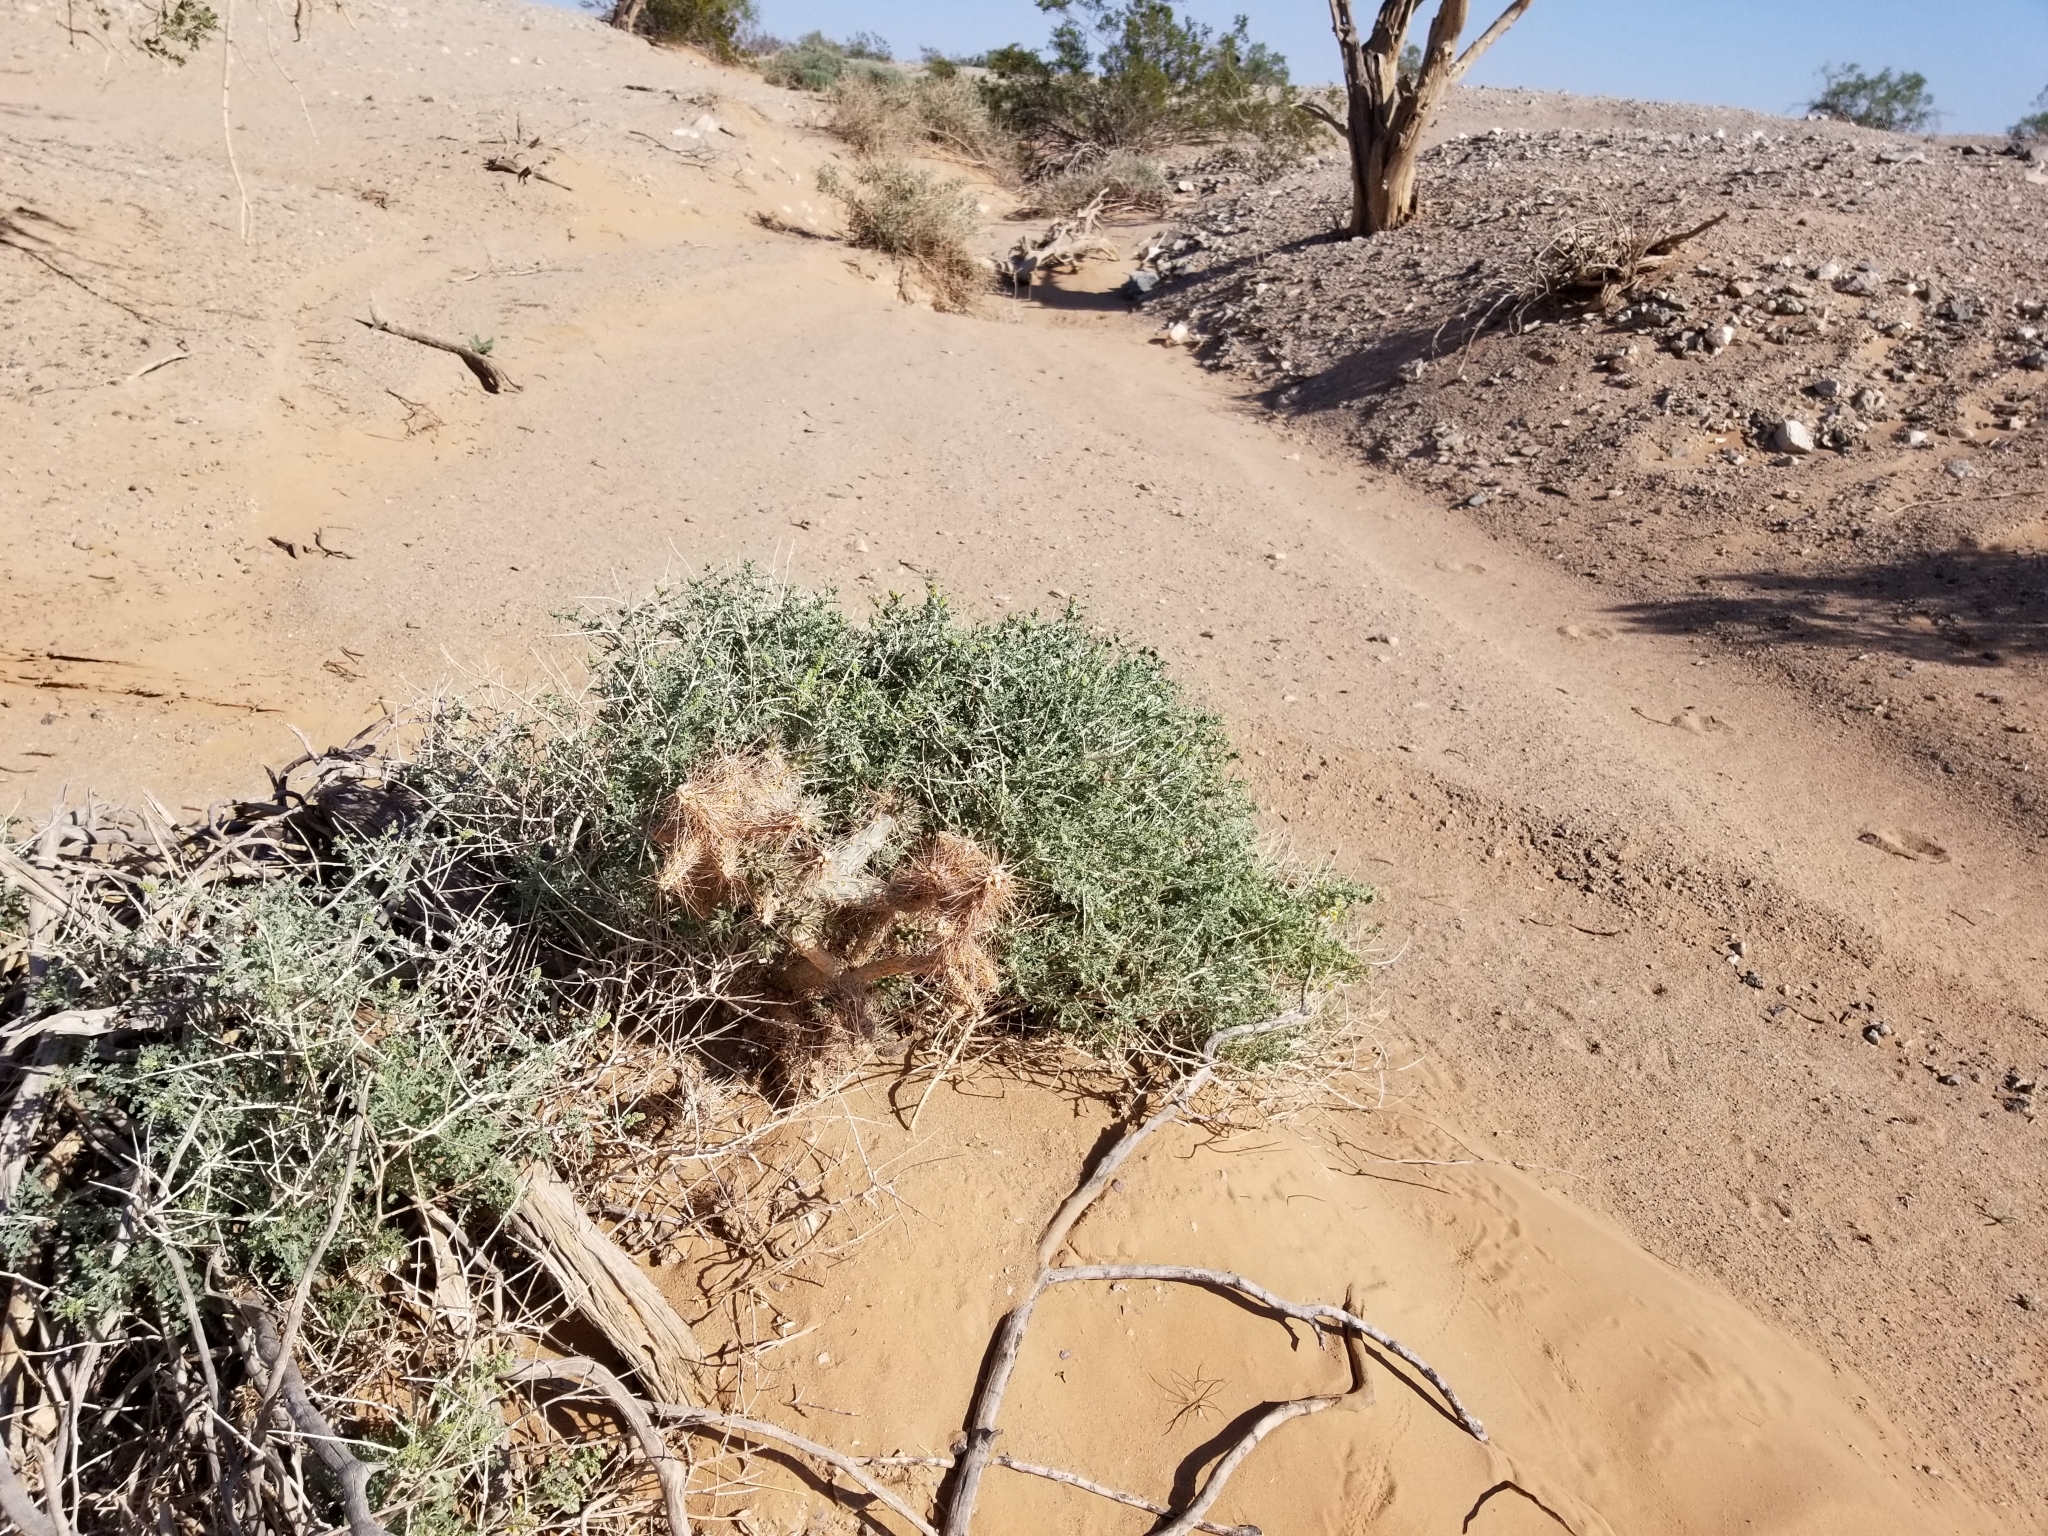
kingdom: Plantae
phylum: Tracheophyta
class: Magnoliopsida
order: Caryophyllales
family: Cactaceae
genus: Cylindropuntia
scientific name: Cylindropuntia acanthocarpa
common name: Buckhorn cholla
